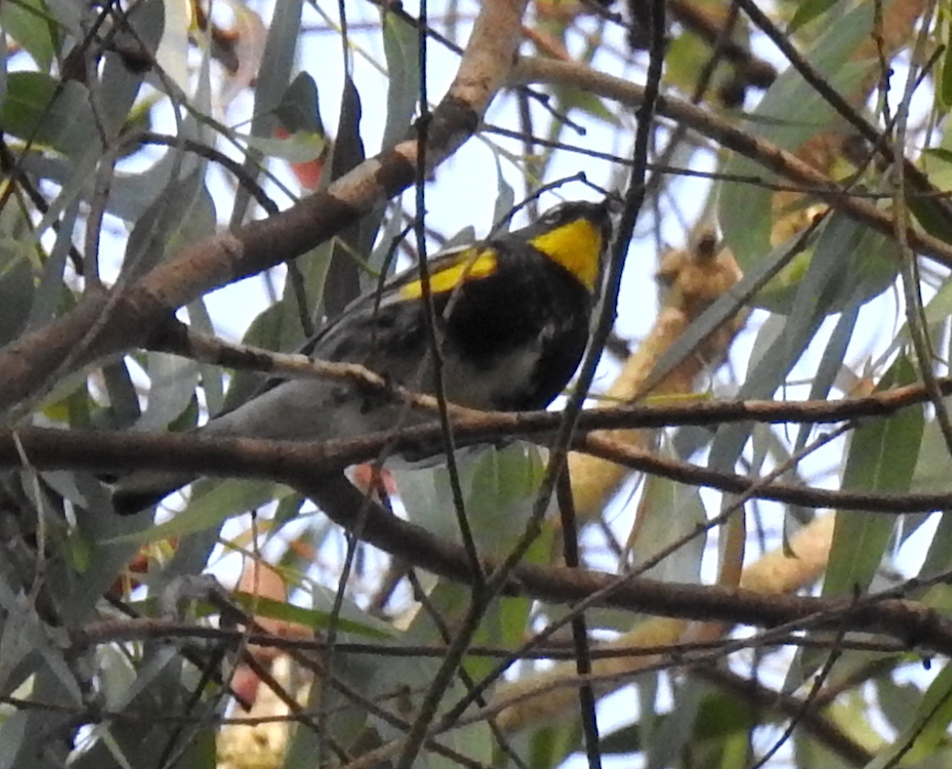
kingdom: Animalia
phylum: Chordata
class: Aves
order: Passeriformes
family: Parulidae
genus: Setophaga
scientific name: Setophaga
